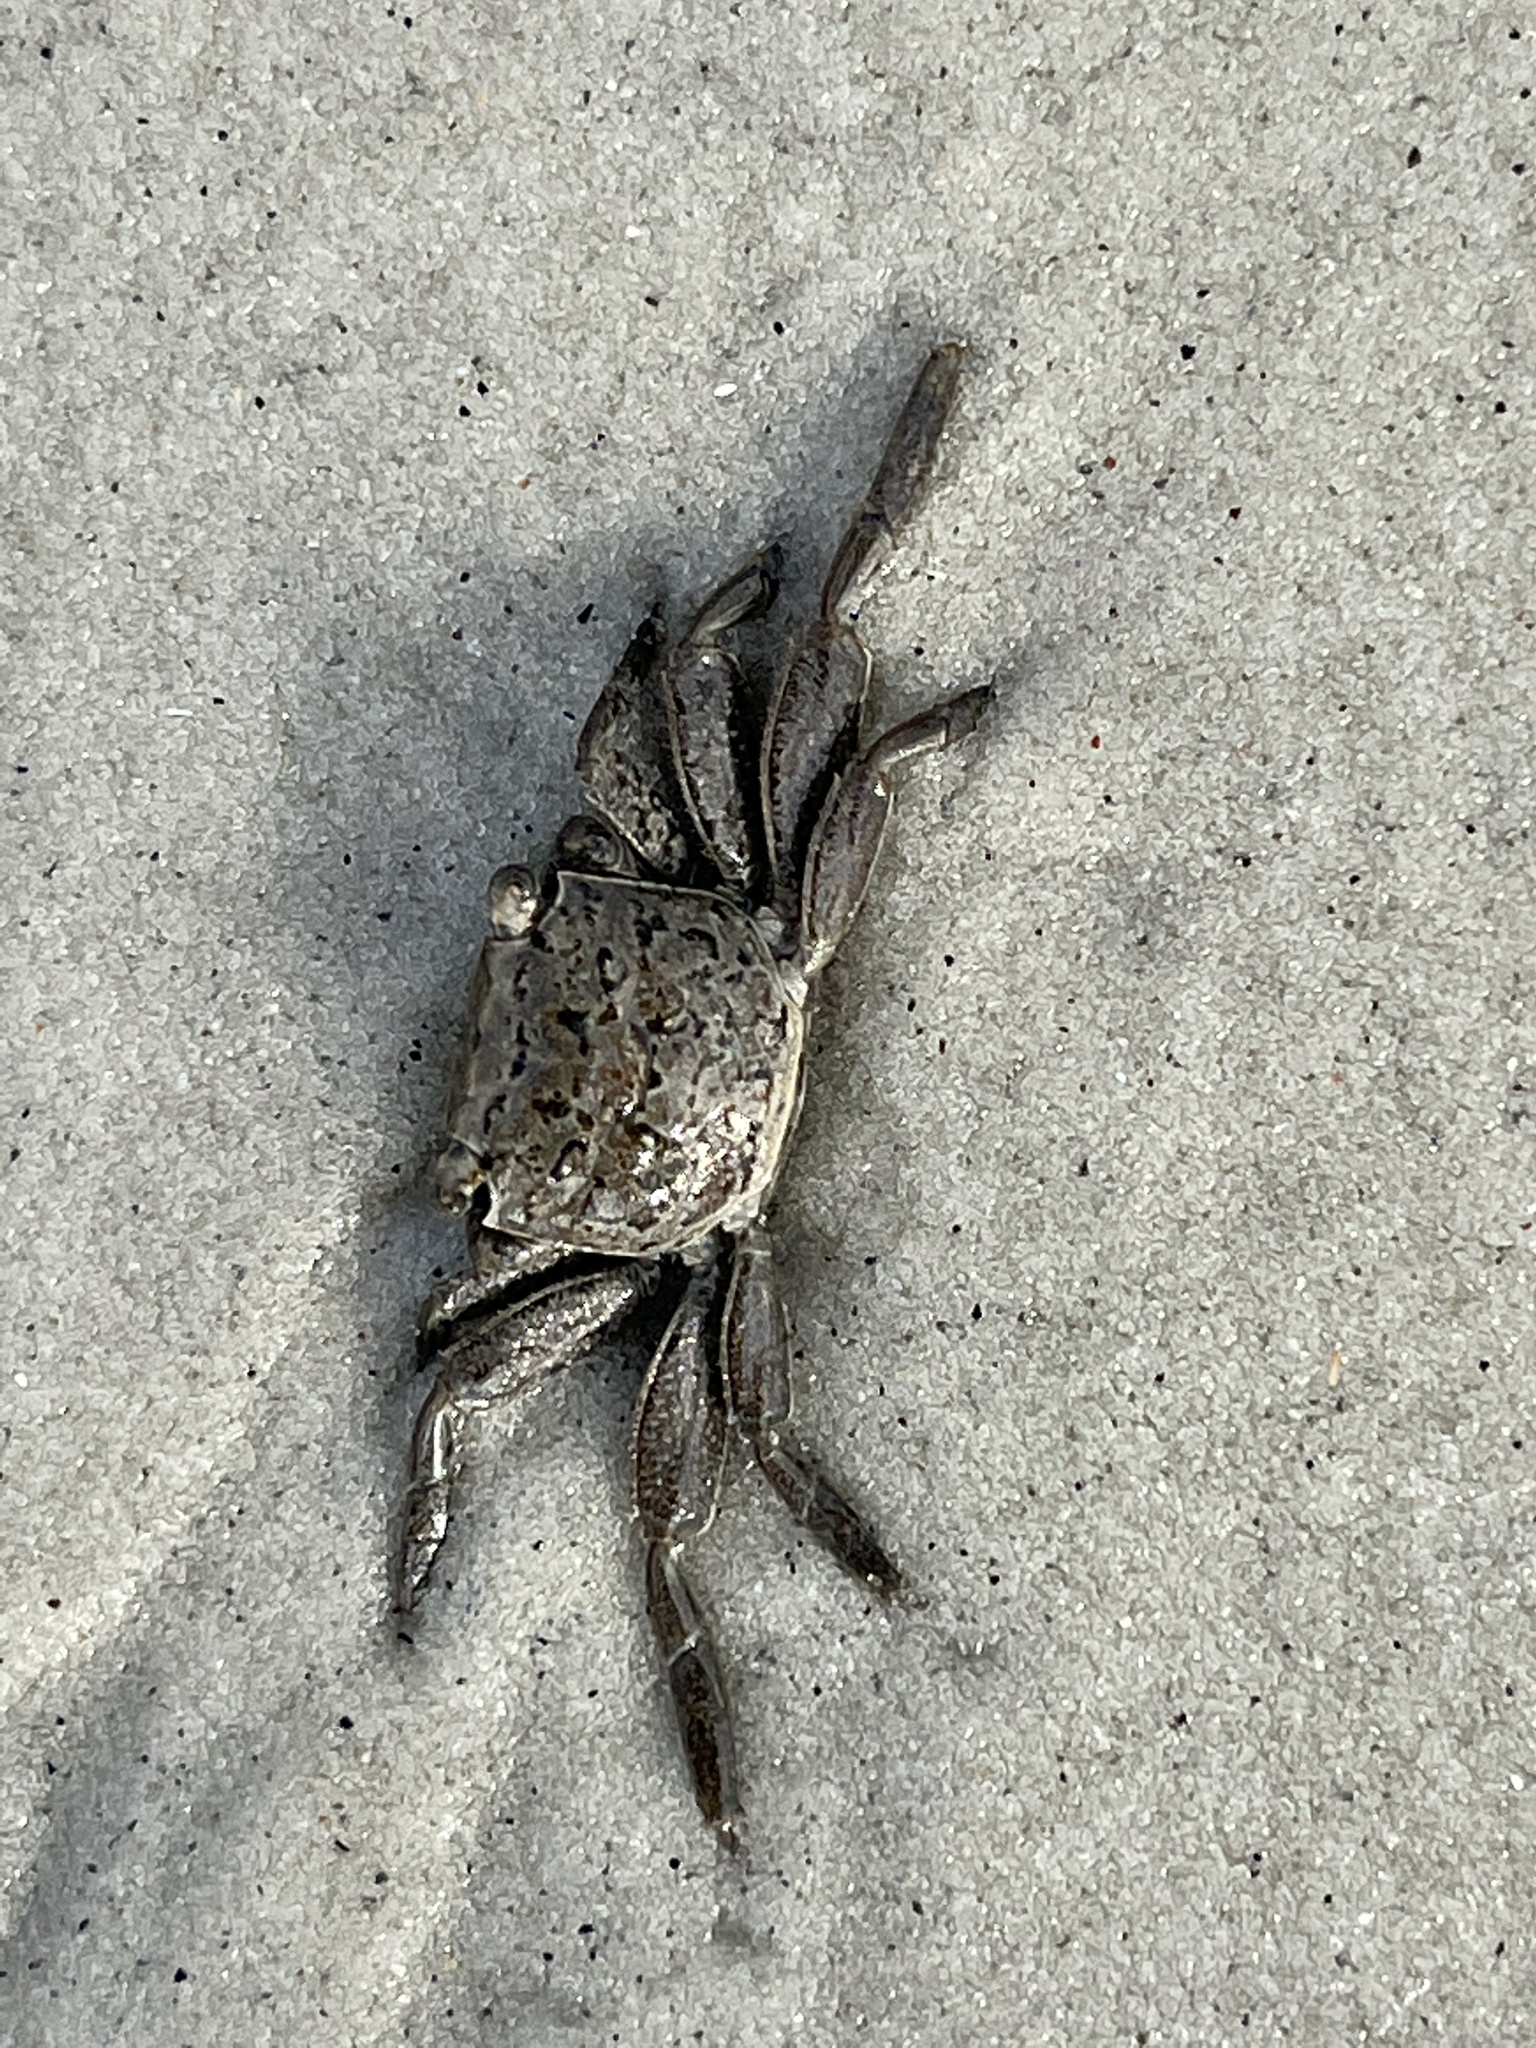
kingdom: Animalia
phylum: Arthropoda
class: Malacostraca
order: Decapoda
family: Sesarmidae
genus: Armases
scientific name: Armases cinereum
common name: Squareback marsh crab
